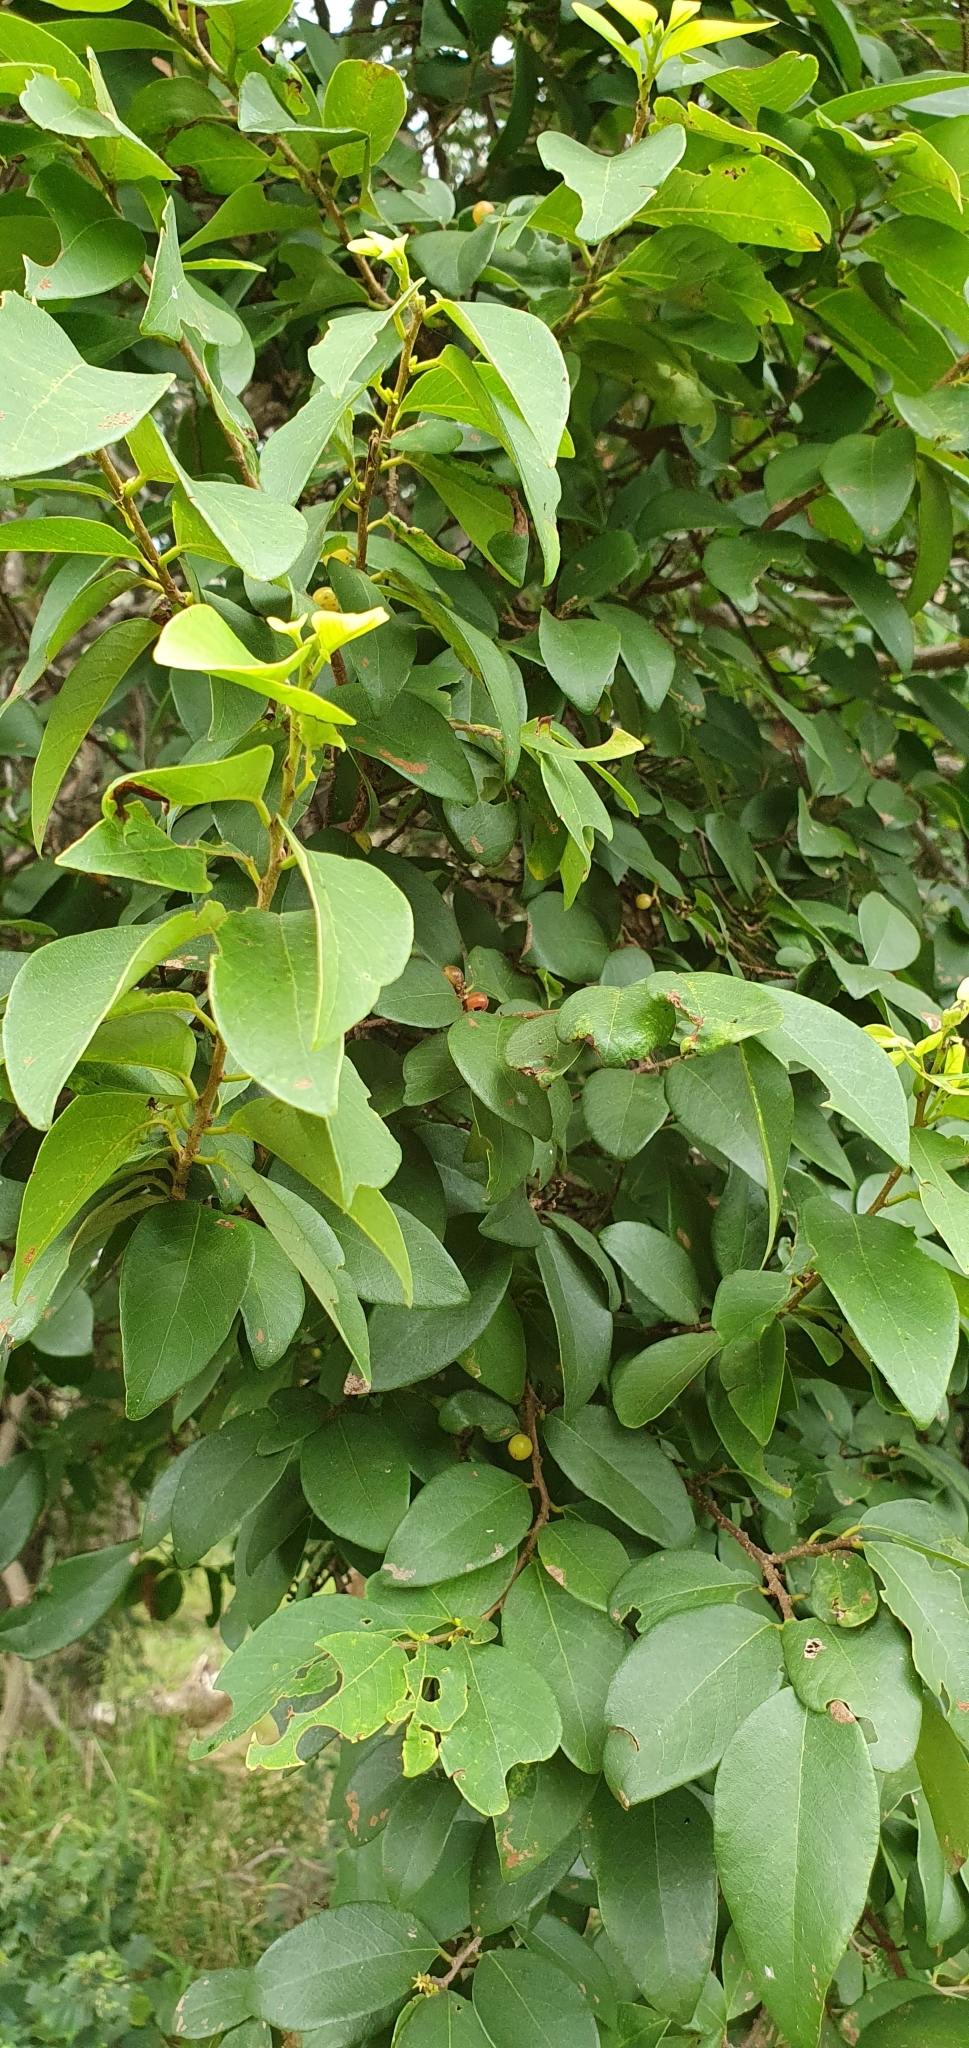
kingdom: Plantae
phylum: Tracheophyta
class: Magnoliopsida
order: Malpighiales
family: Phyllanthaceae
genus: Bridelia
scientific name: Bridelia leichhardtii
